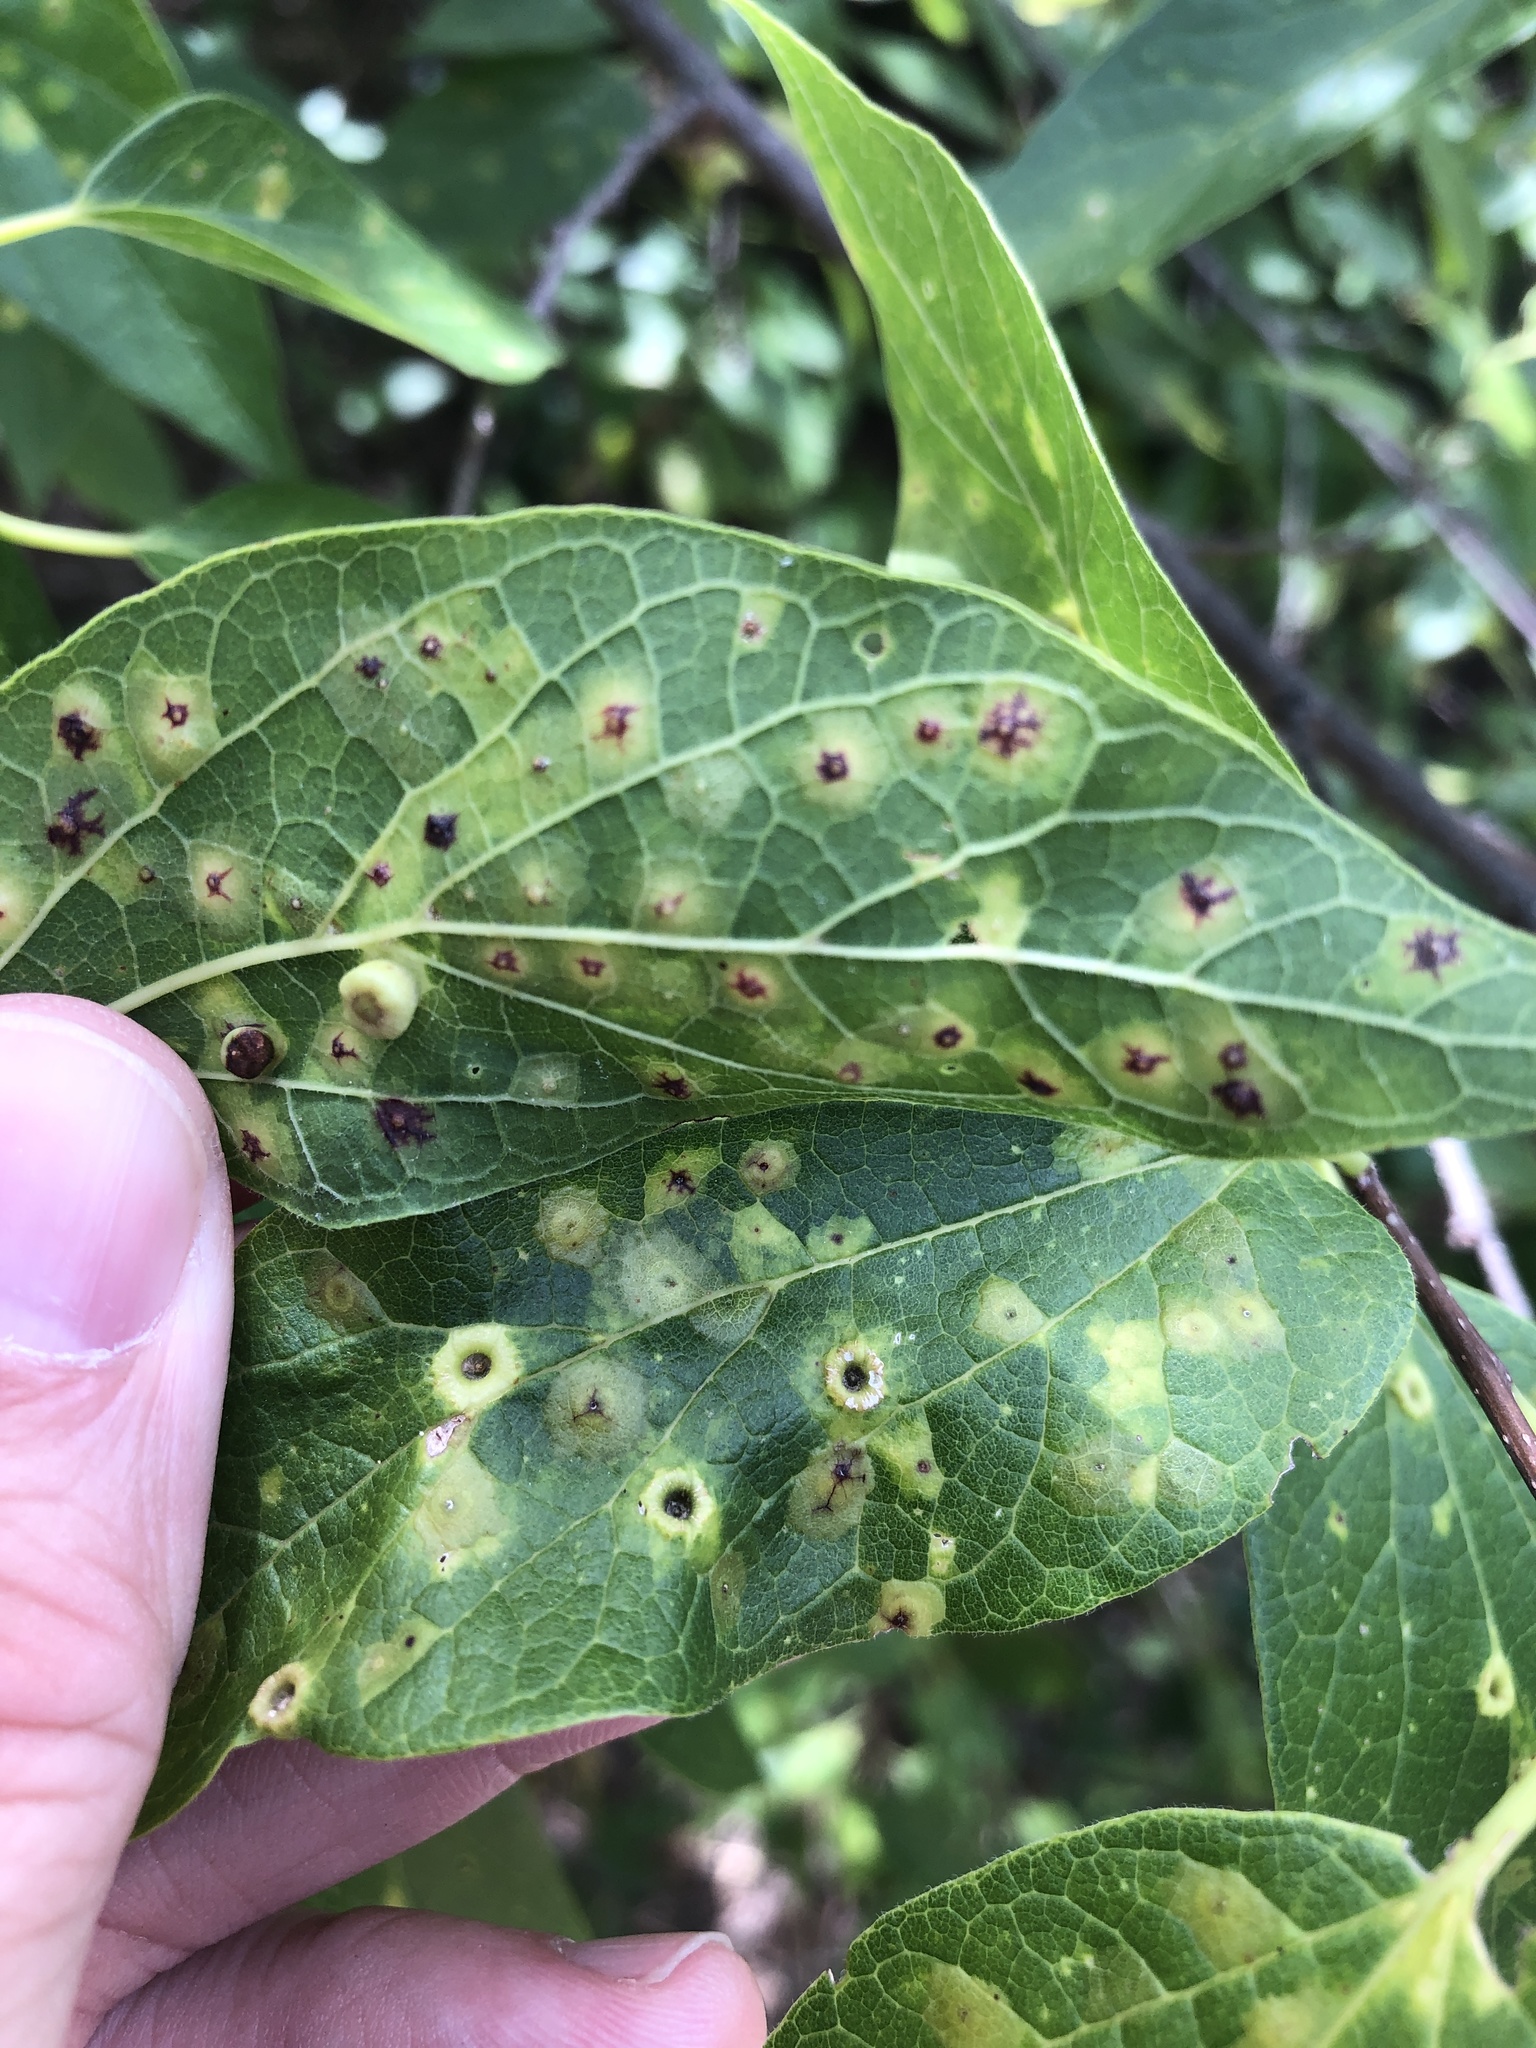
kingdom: Animalia
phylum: Arthropoda
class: Insecta
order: Hemiptera
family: Aphalaridae
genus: Pachypsylla
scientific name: Pachypsylla celtidismamma
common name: Hackberry nipplegall psyllid
